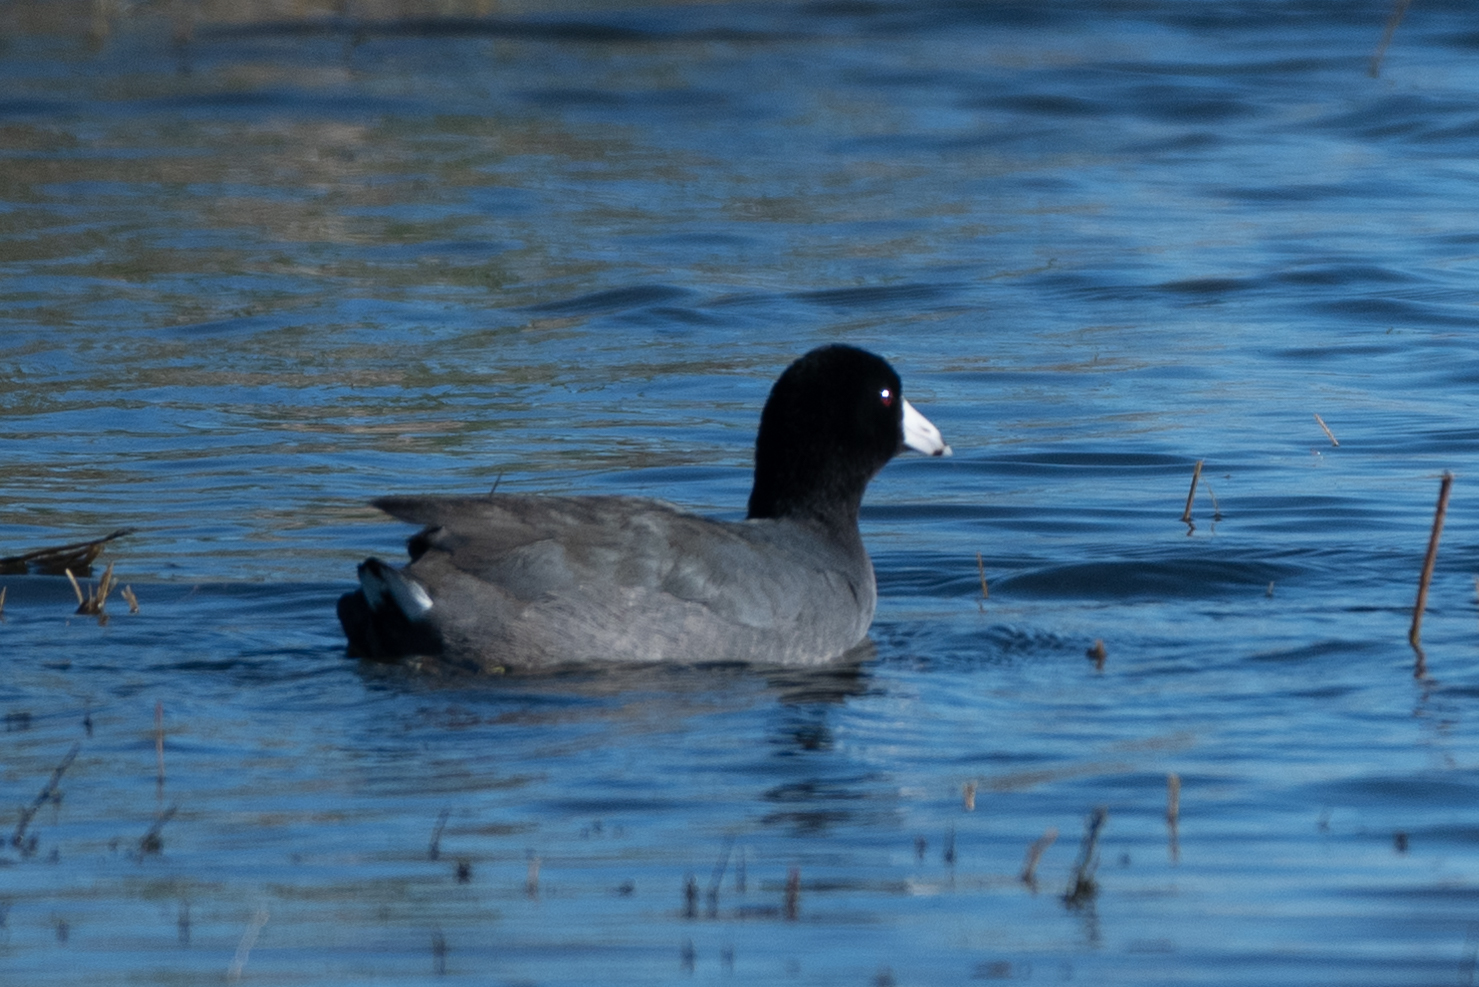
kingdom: Animalia
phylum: Chordata
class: Aves
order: Gruiformes
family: Rallidae
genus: Fulica
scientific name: Fulica americana
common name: American coot
